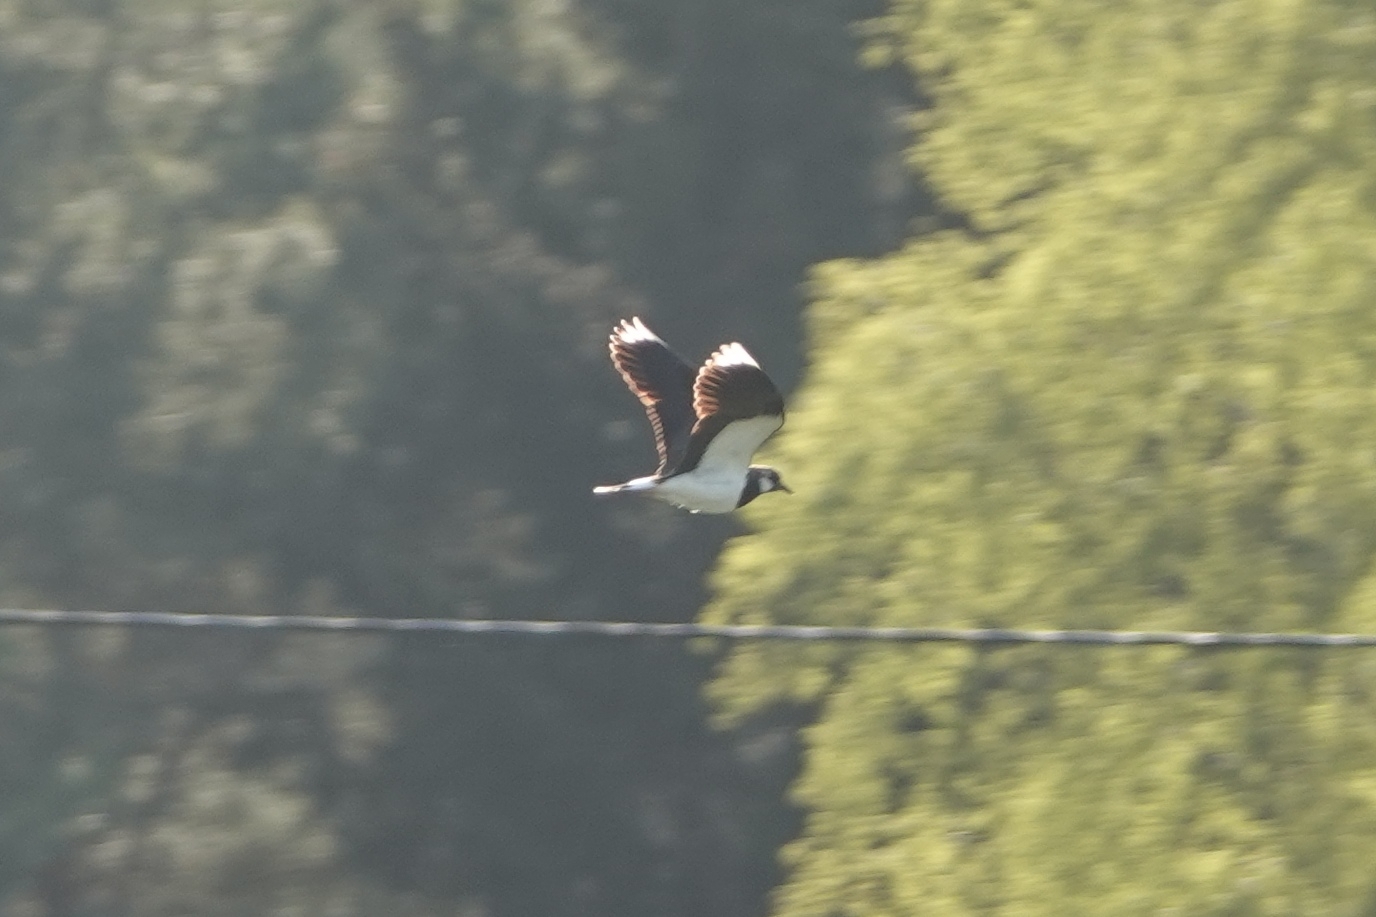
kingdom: Animalia
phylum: Chordata
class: Aves
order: Charadriiformes
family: Charadriidae
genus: Vanellus
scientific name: Vanellus vanellus
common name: Northern lapwing
